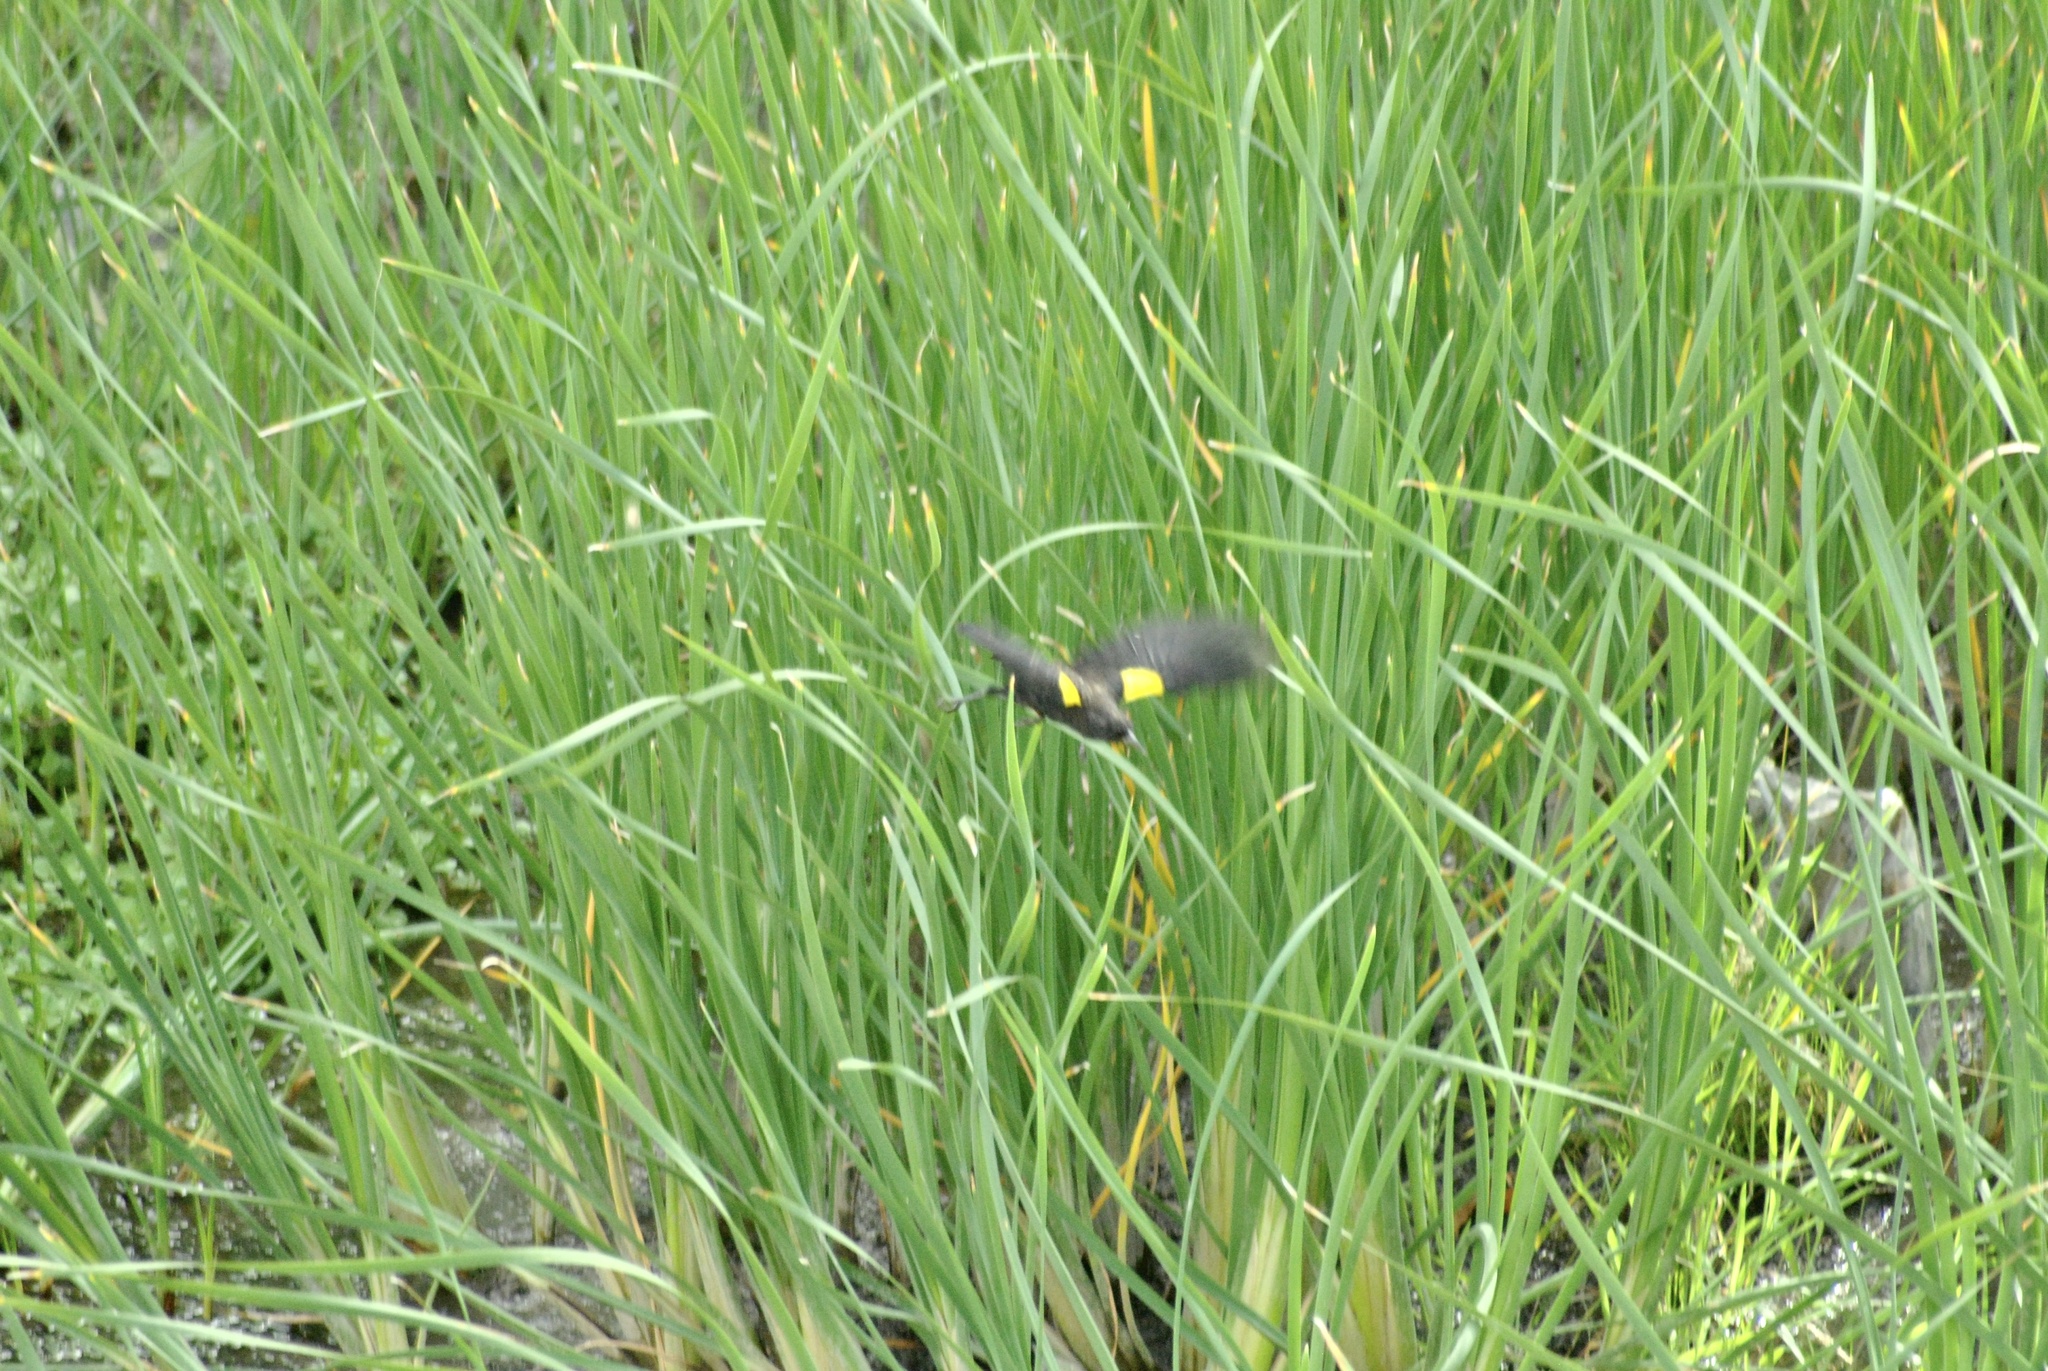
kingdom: Animalia
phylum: Chordata
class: Aves
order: Passeriformes
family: Icteridae
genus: Agelasticus
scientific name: Agelasticus thilius
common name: Yellow-winged blackbird
